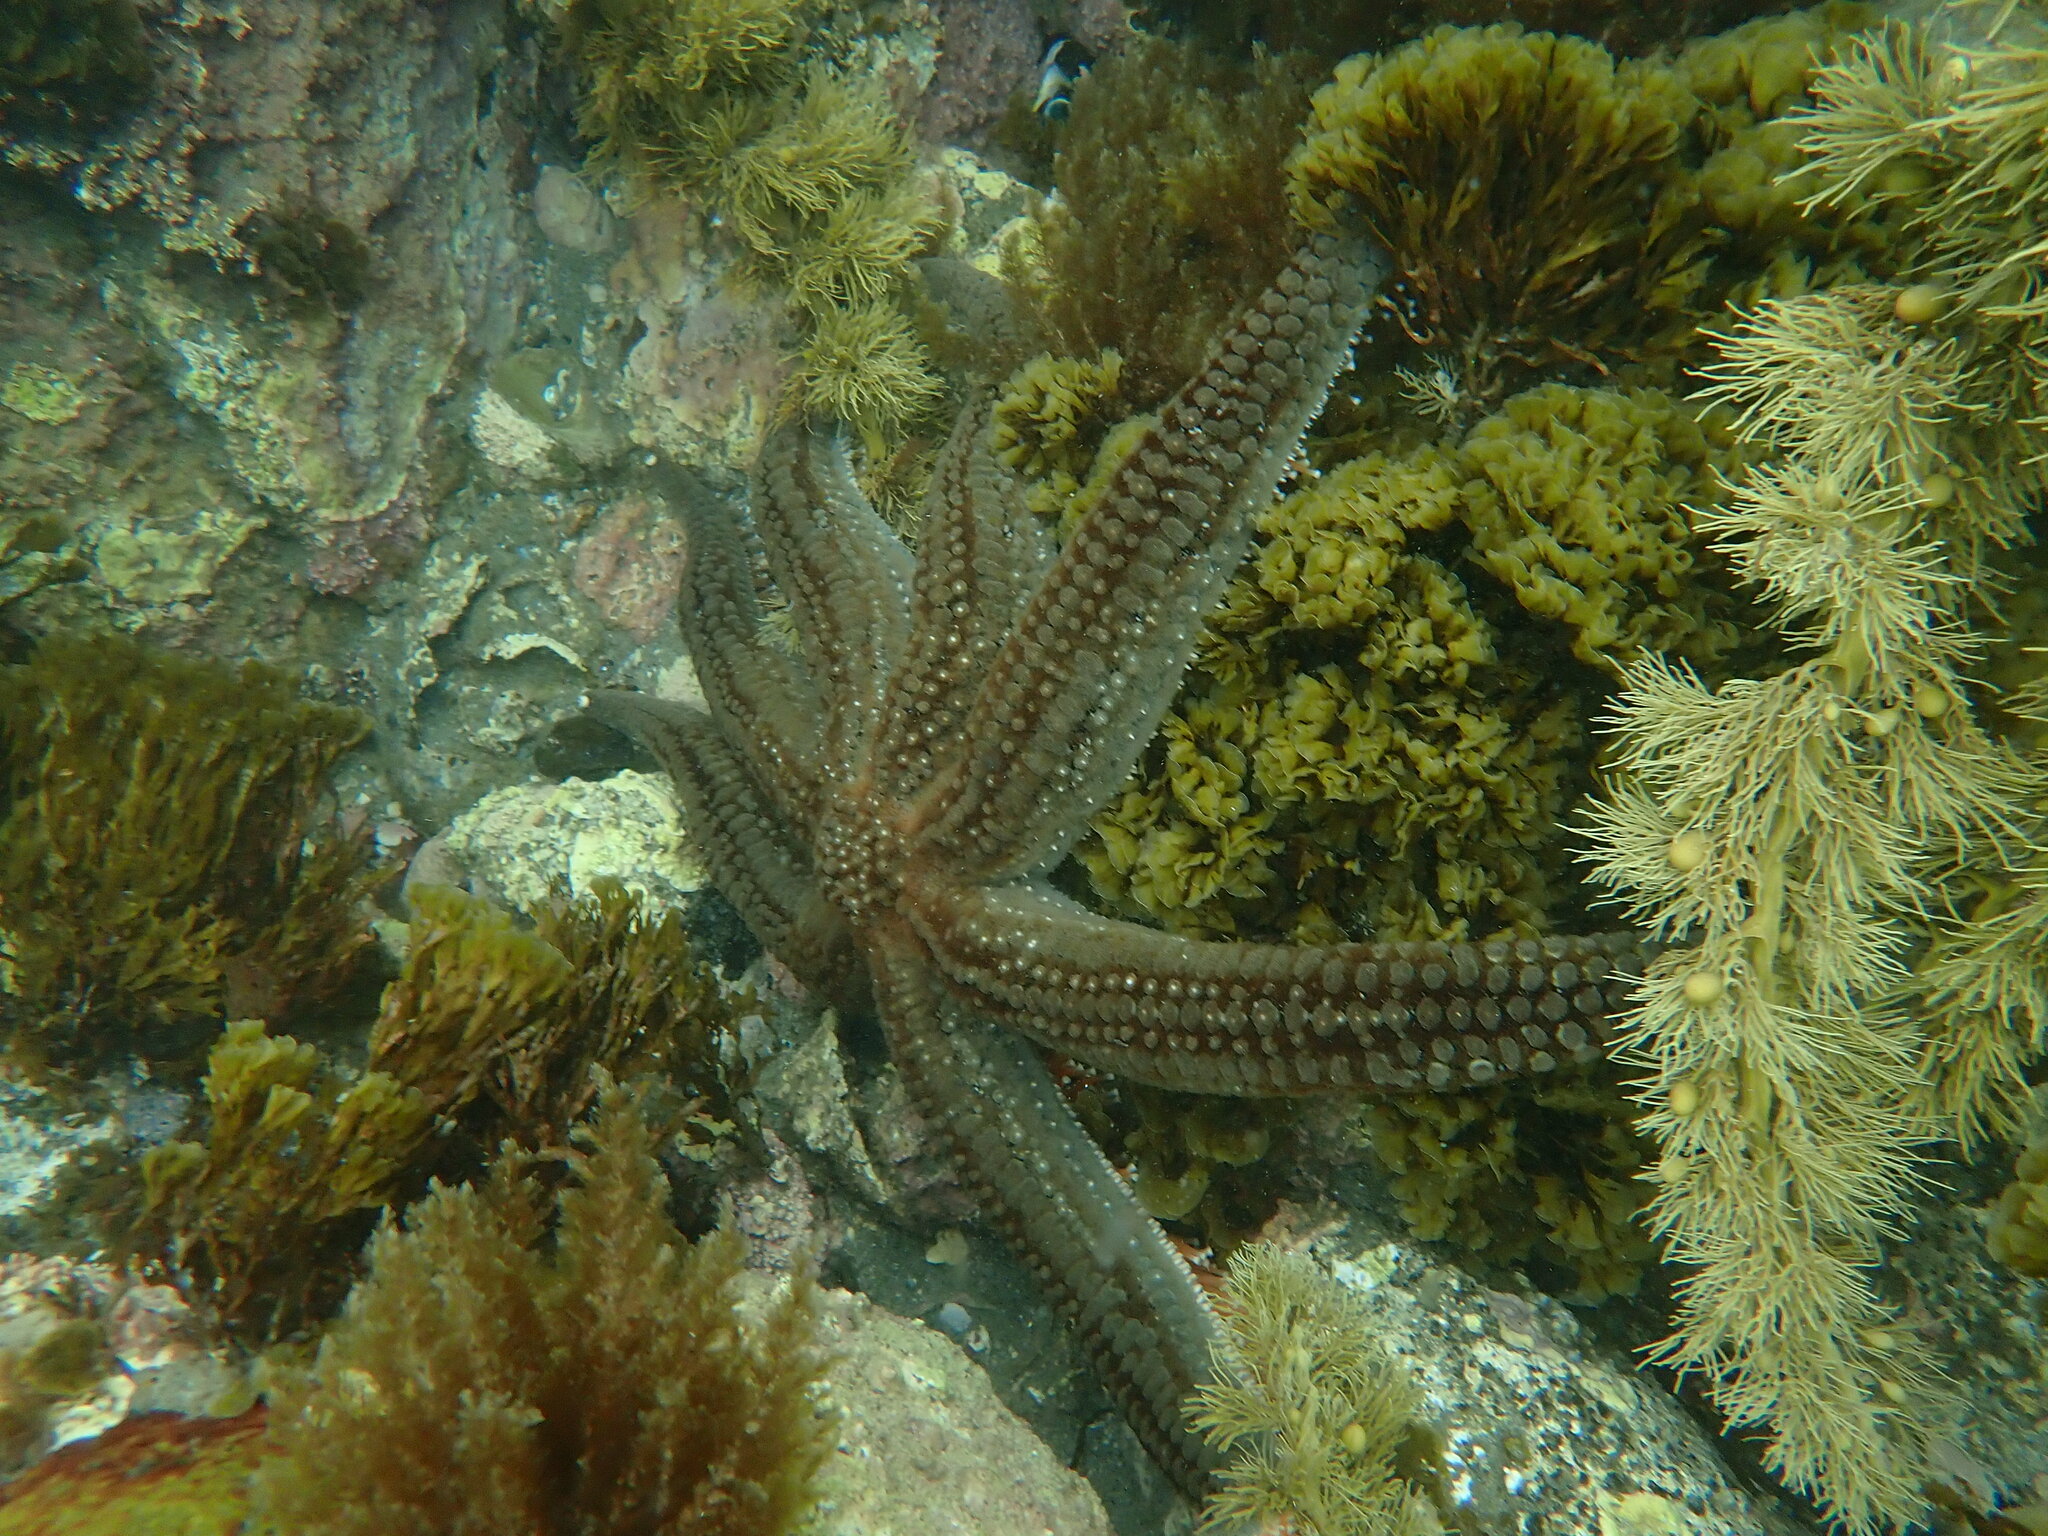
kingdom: Animalia
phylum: Echinodermata
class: Asteroidea
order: Forcipulatida
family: Asteriidae
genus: Astrostole
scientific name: Astrostole scabra
